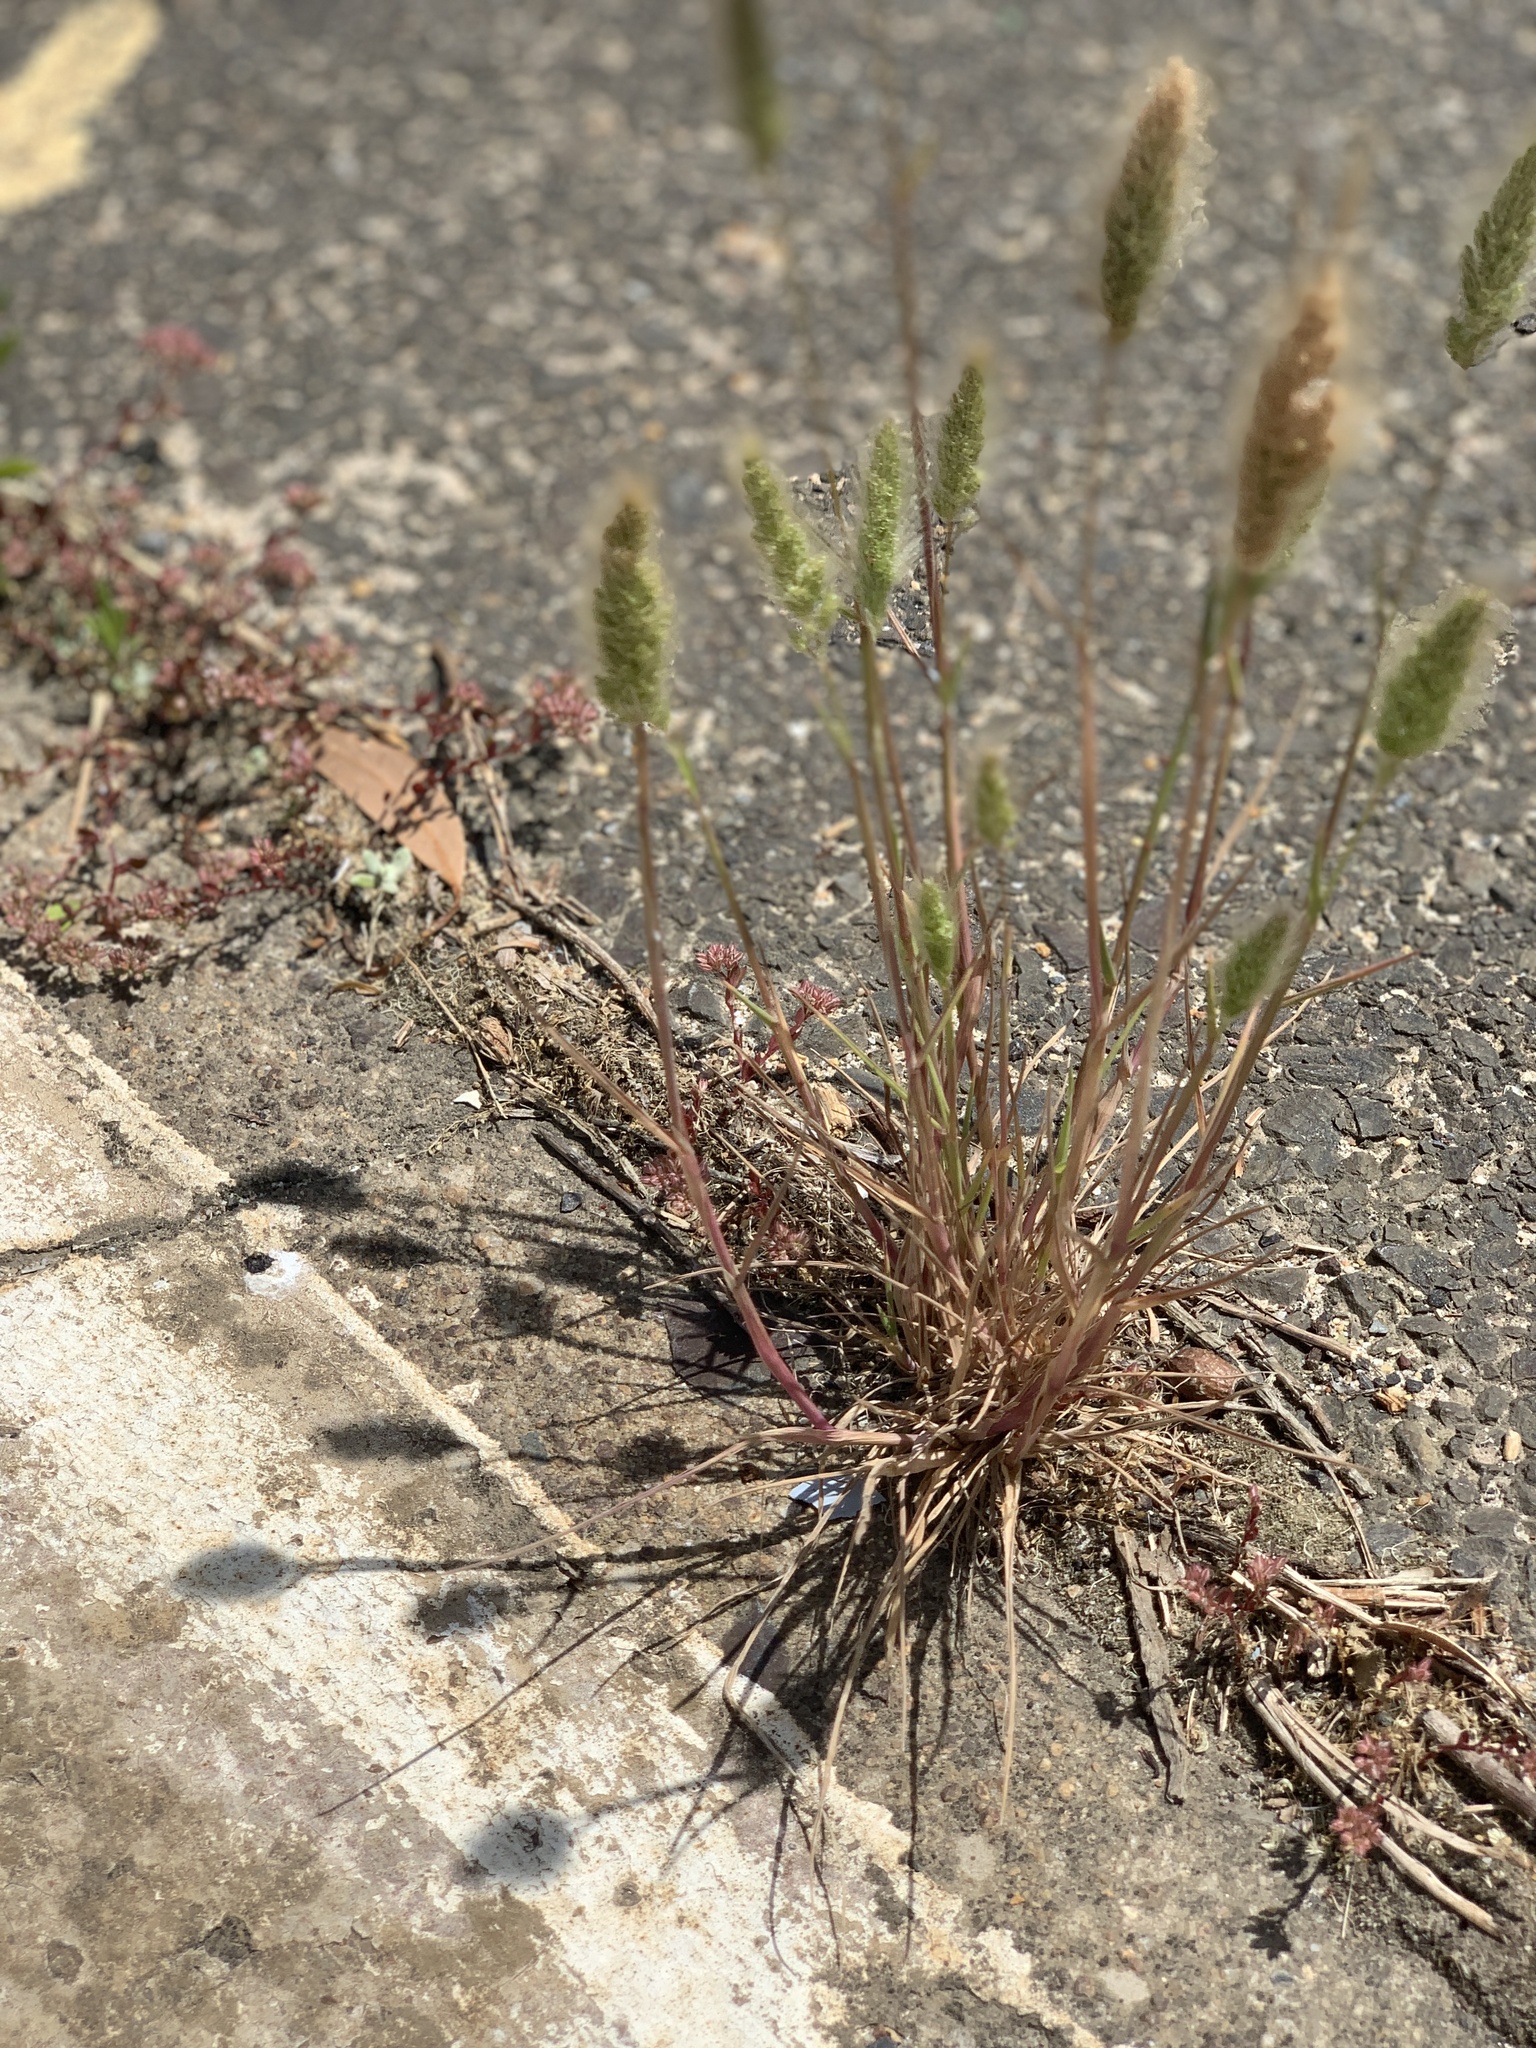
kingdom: Plantae
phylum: Tracheophyta
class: Liliopsida
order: Poales
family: Poaceae
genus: Polypogon
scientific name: Polypogon monspeliensis
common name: Annual rabbitsfoot grass
